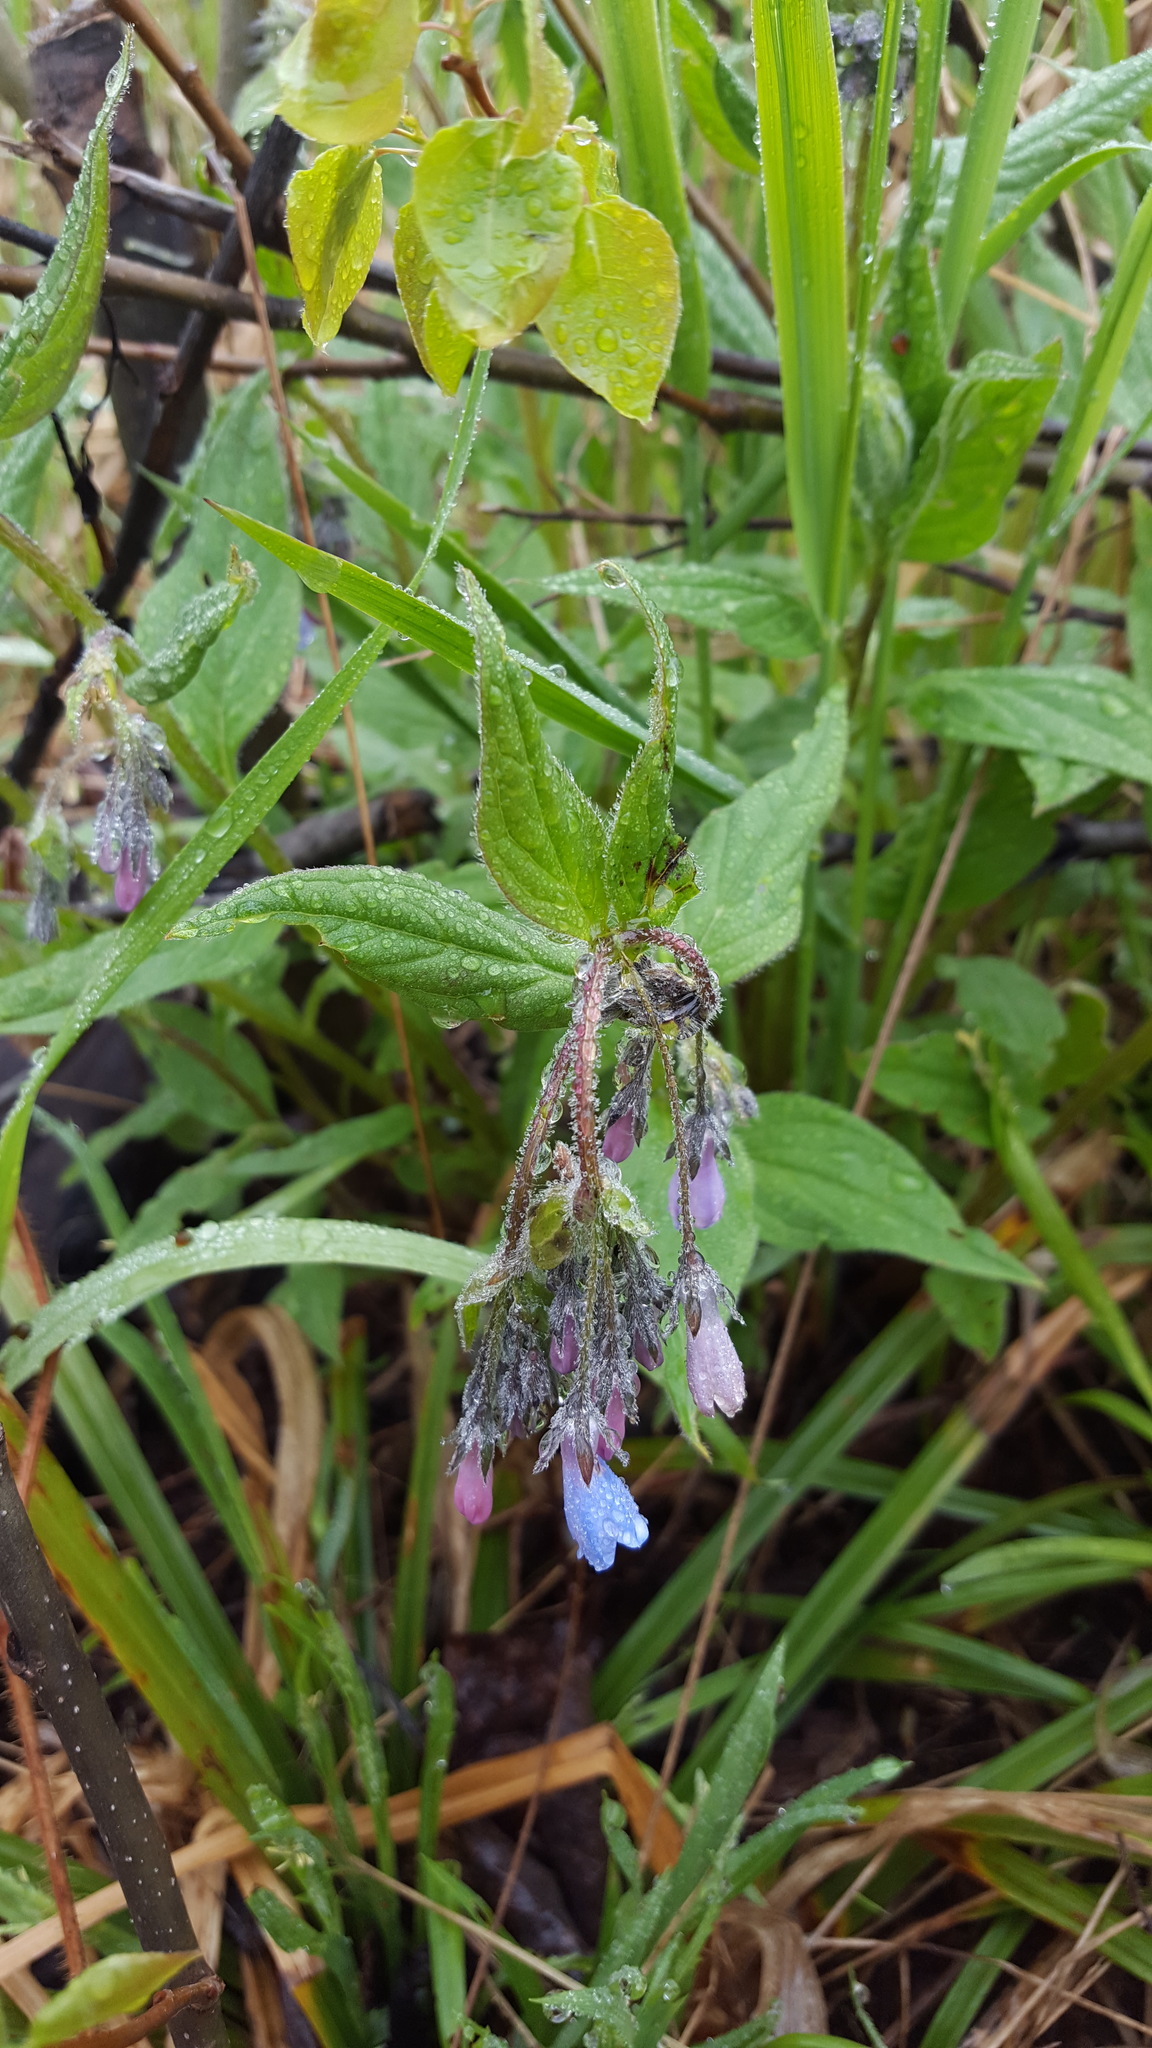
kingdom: Plantae
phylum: Tracheophyta
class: Magnoliopsida
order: Boraginales
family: Boraginaceae
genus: Mertensia
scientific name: Mertensia paniculata
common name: Panicled bluebells
